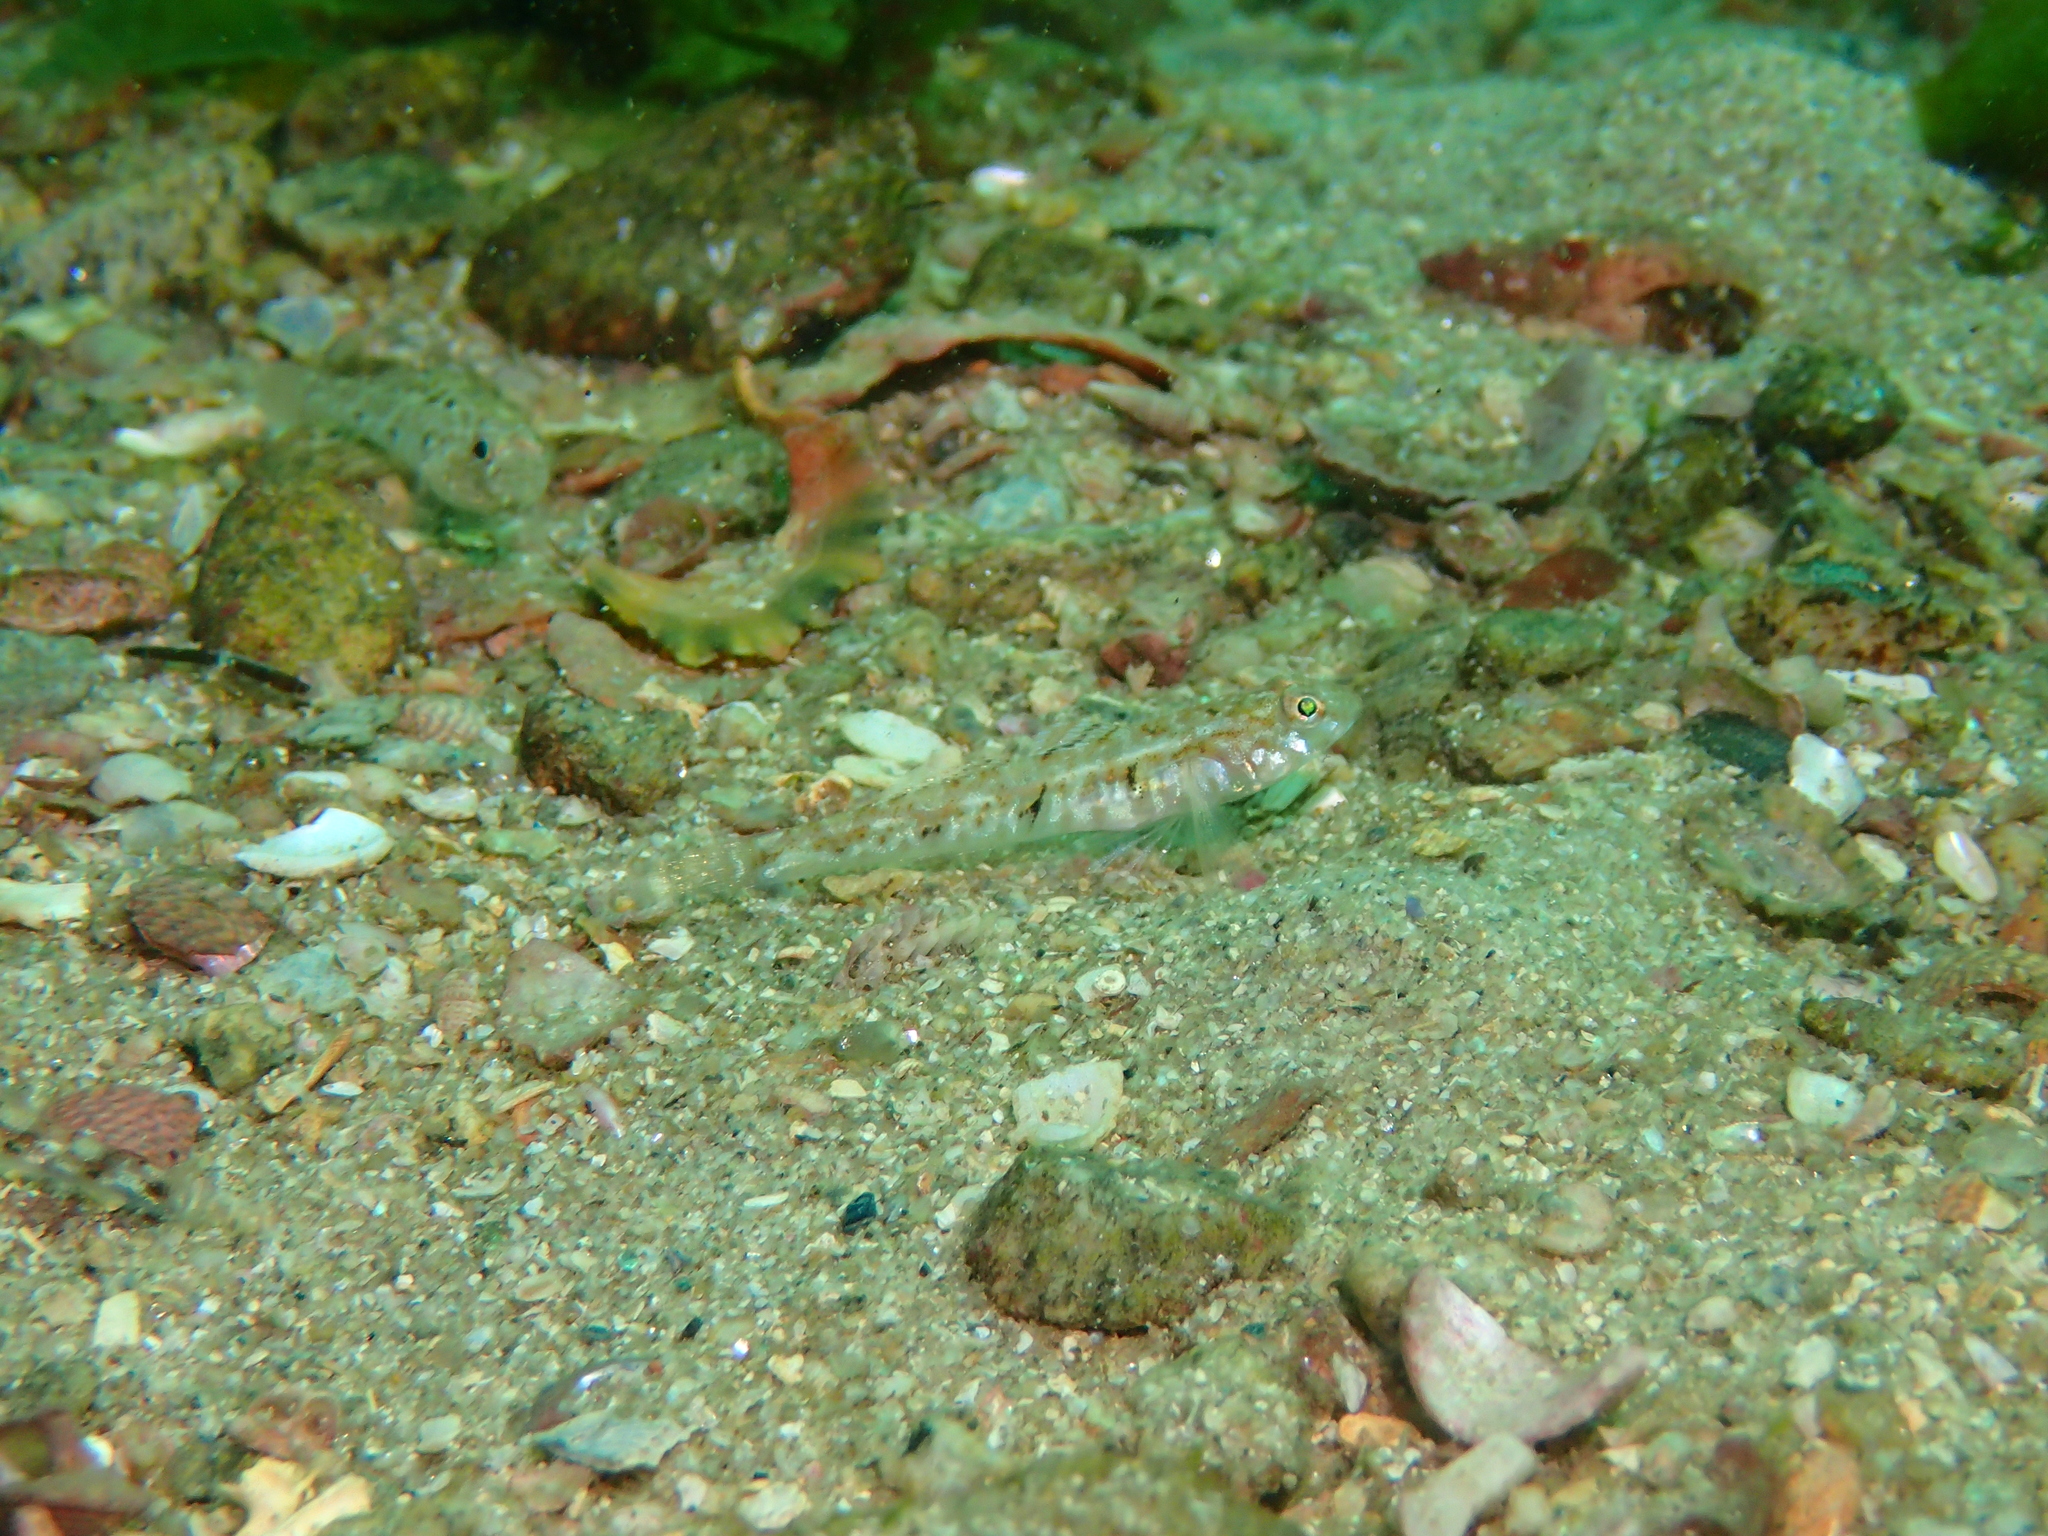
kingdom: Animalia
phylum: Chordata
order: Perciformes
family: Gobiidae
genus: Pomatoschistus
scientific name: Pomatoschistus pictus
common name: Painted goby
